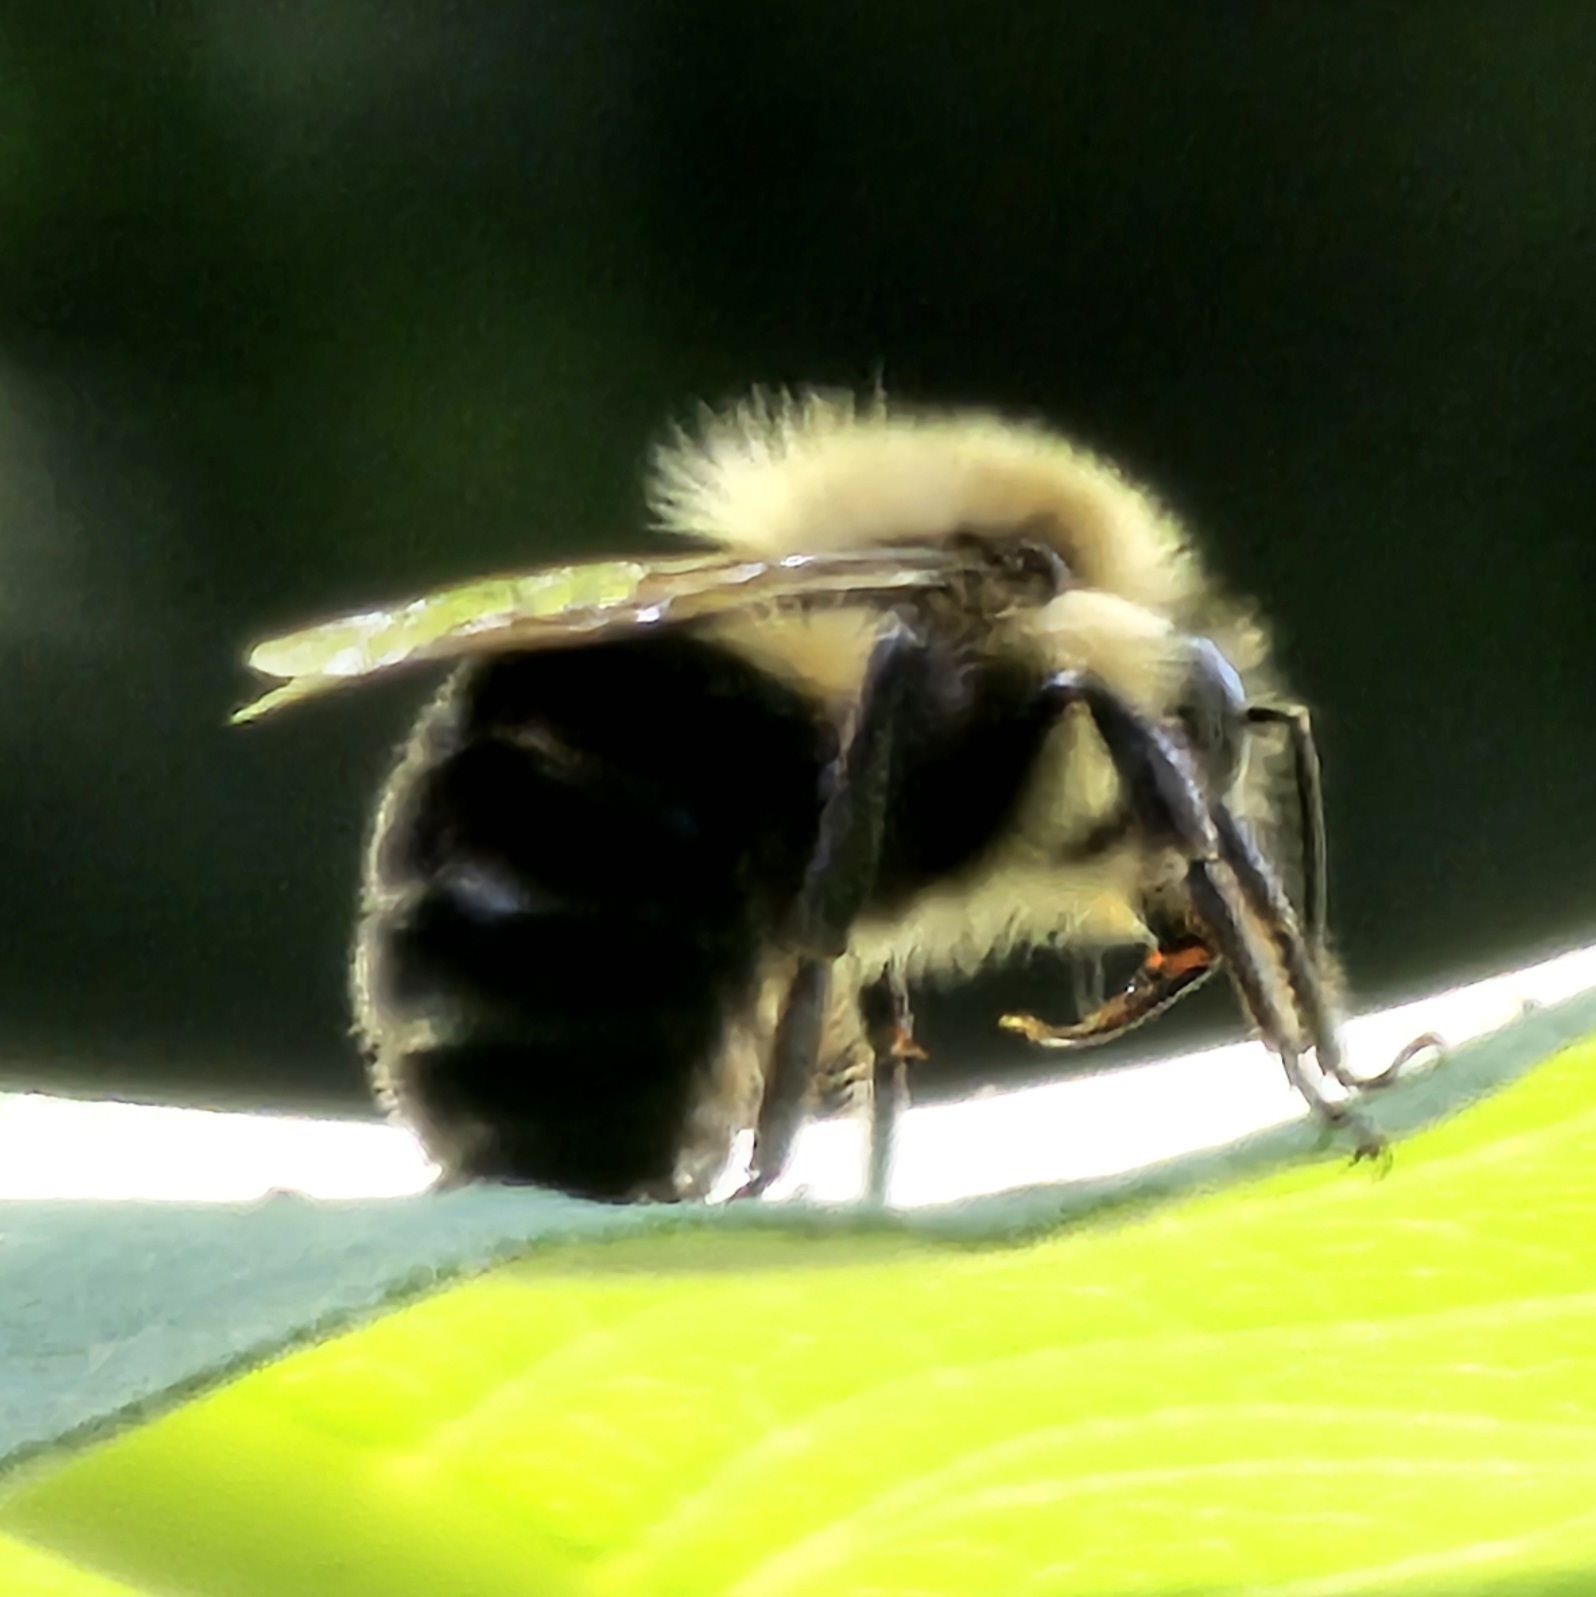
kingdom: Animalia
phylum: Arthropoda
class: Insecta
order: Hymenoptera
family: Apidae
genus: Bombus
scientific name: Bombus impatiens
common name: Common eastern bumble bee
